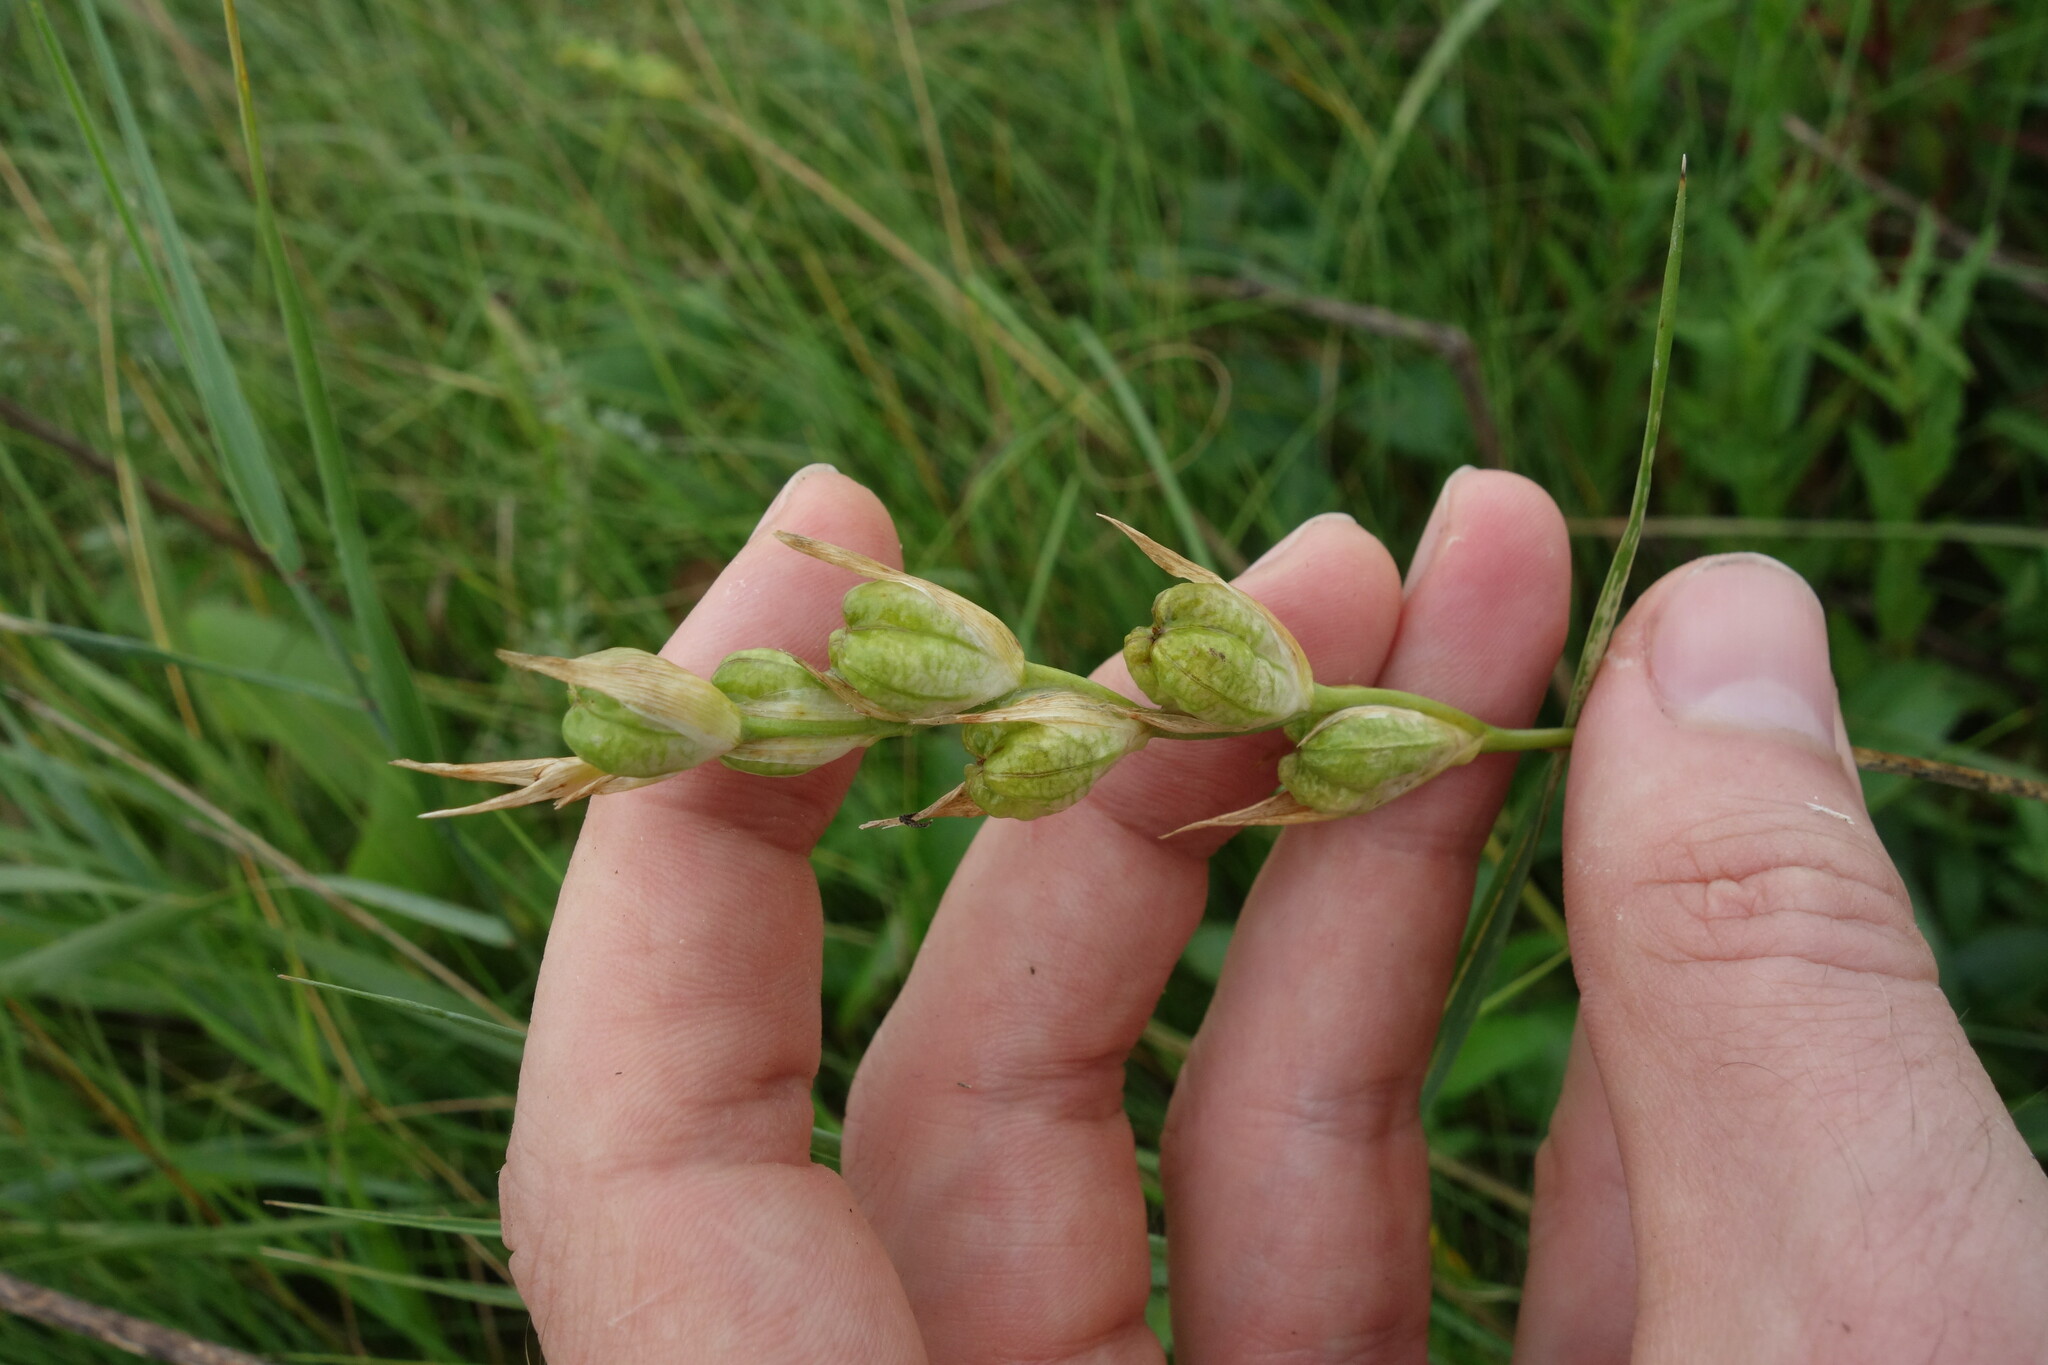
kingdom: Plantae
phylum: Tracheophyta
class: Liliopsida
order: Asparagales
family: Iridaceae
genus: Gladiolus
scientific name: Gladiolus tenuis
